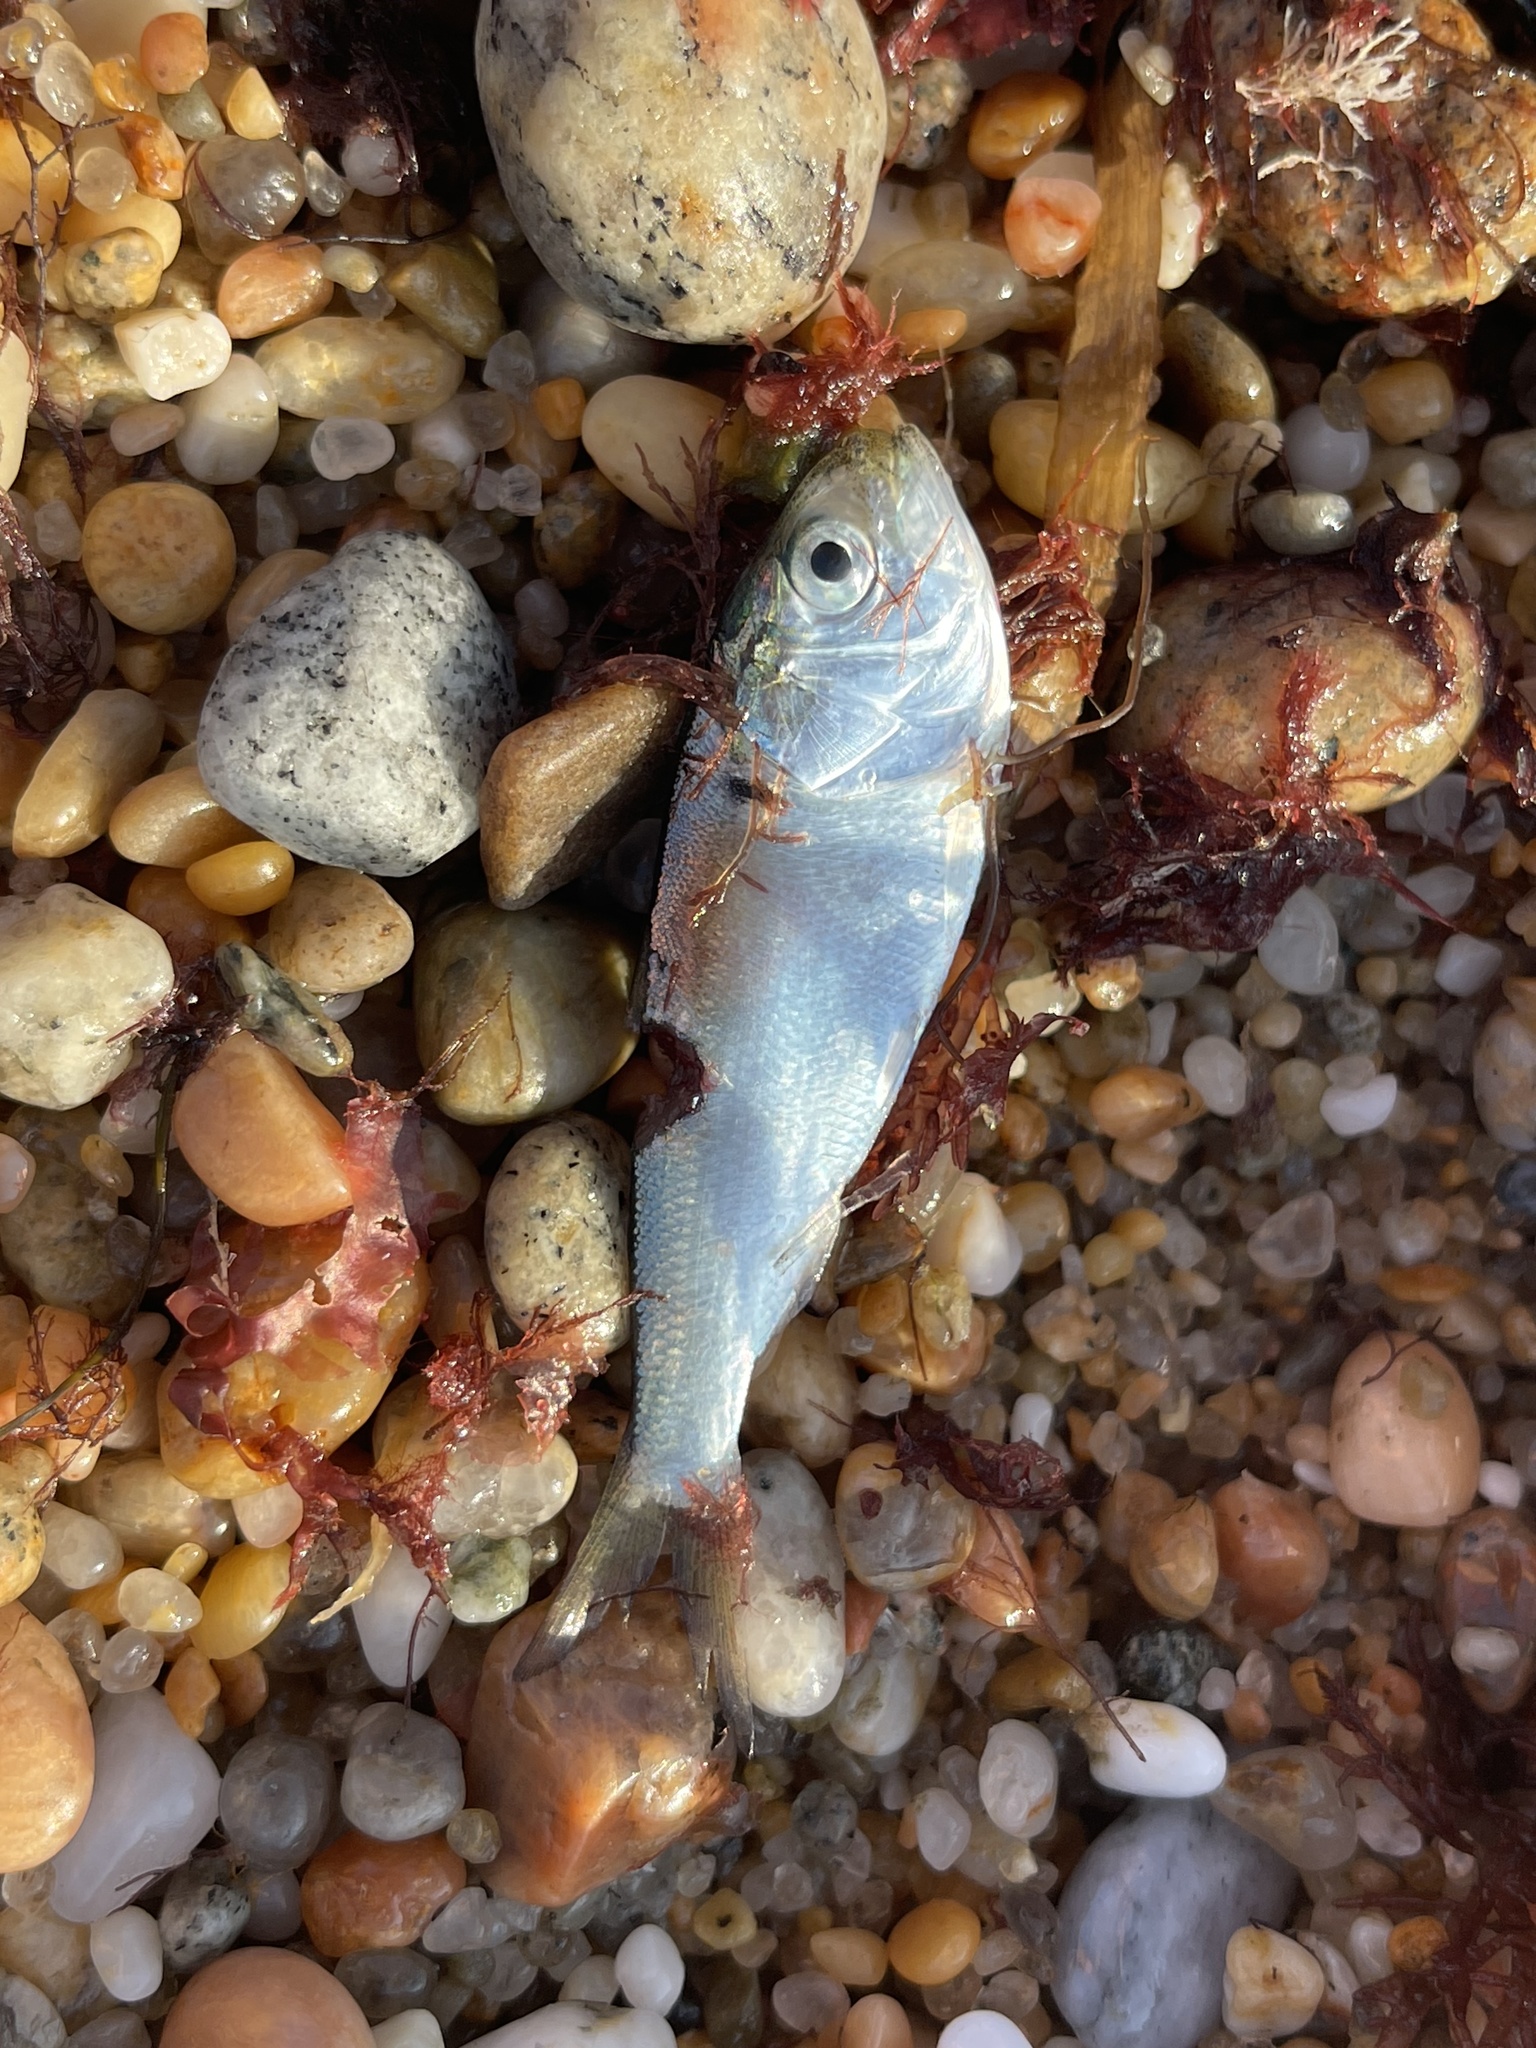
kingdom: Animalia
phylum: Chordata
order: Clupeiformes
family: Clupeidae
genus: Brevoortia
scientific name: Brevoortia tyrannus
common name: Atlantic menhaden
